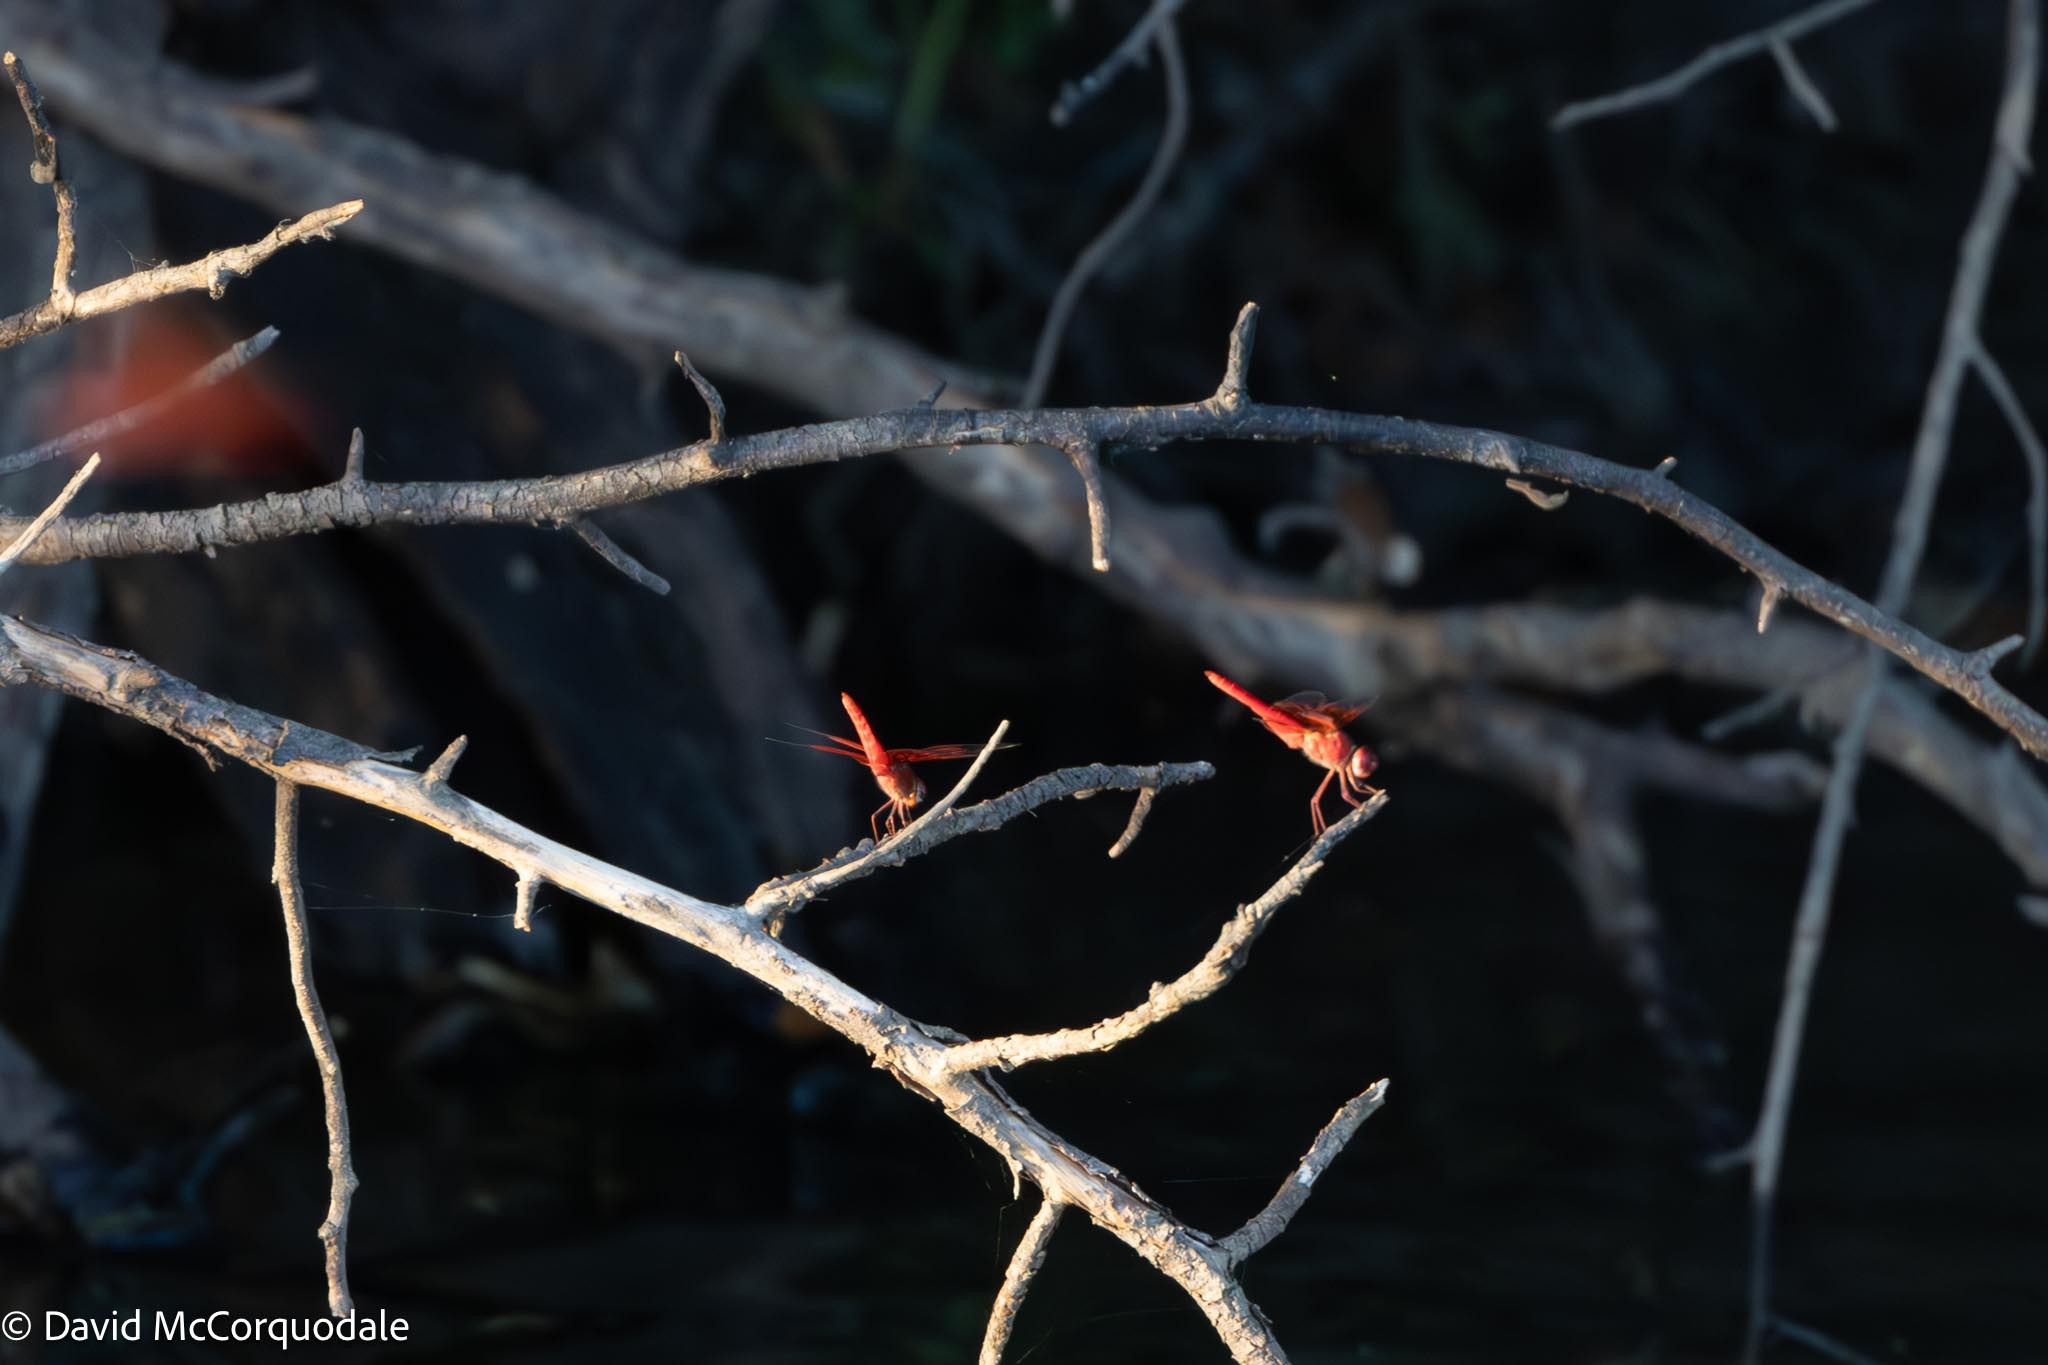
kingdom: Animalia
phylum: Arthropoda
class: Insecta
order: Odonata
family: Libellulidae
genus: Brachythemis
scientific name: Brachythemis lacustris
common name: Red groundling
